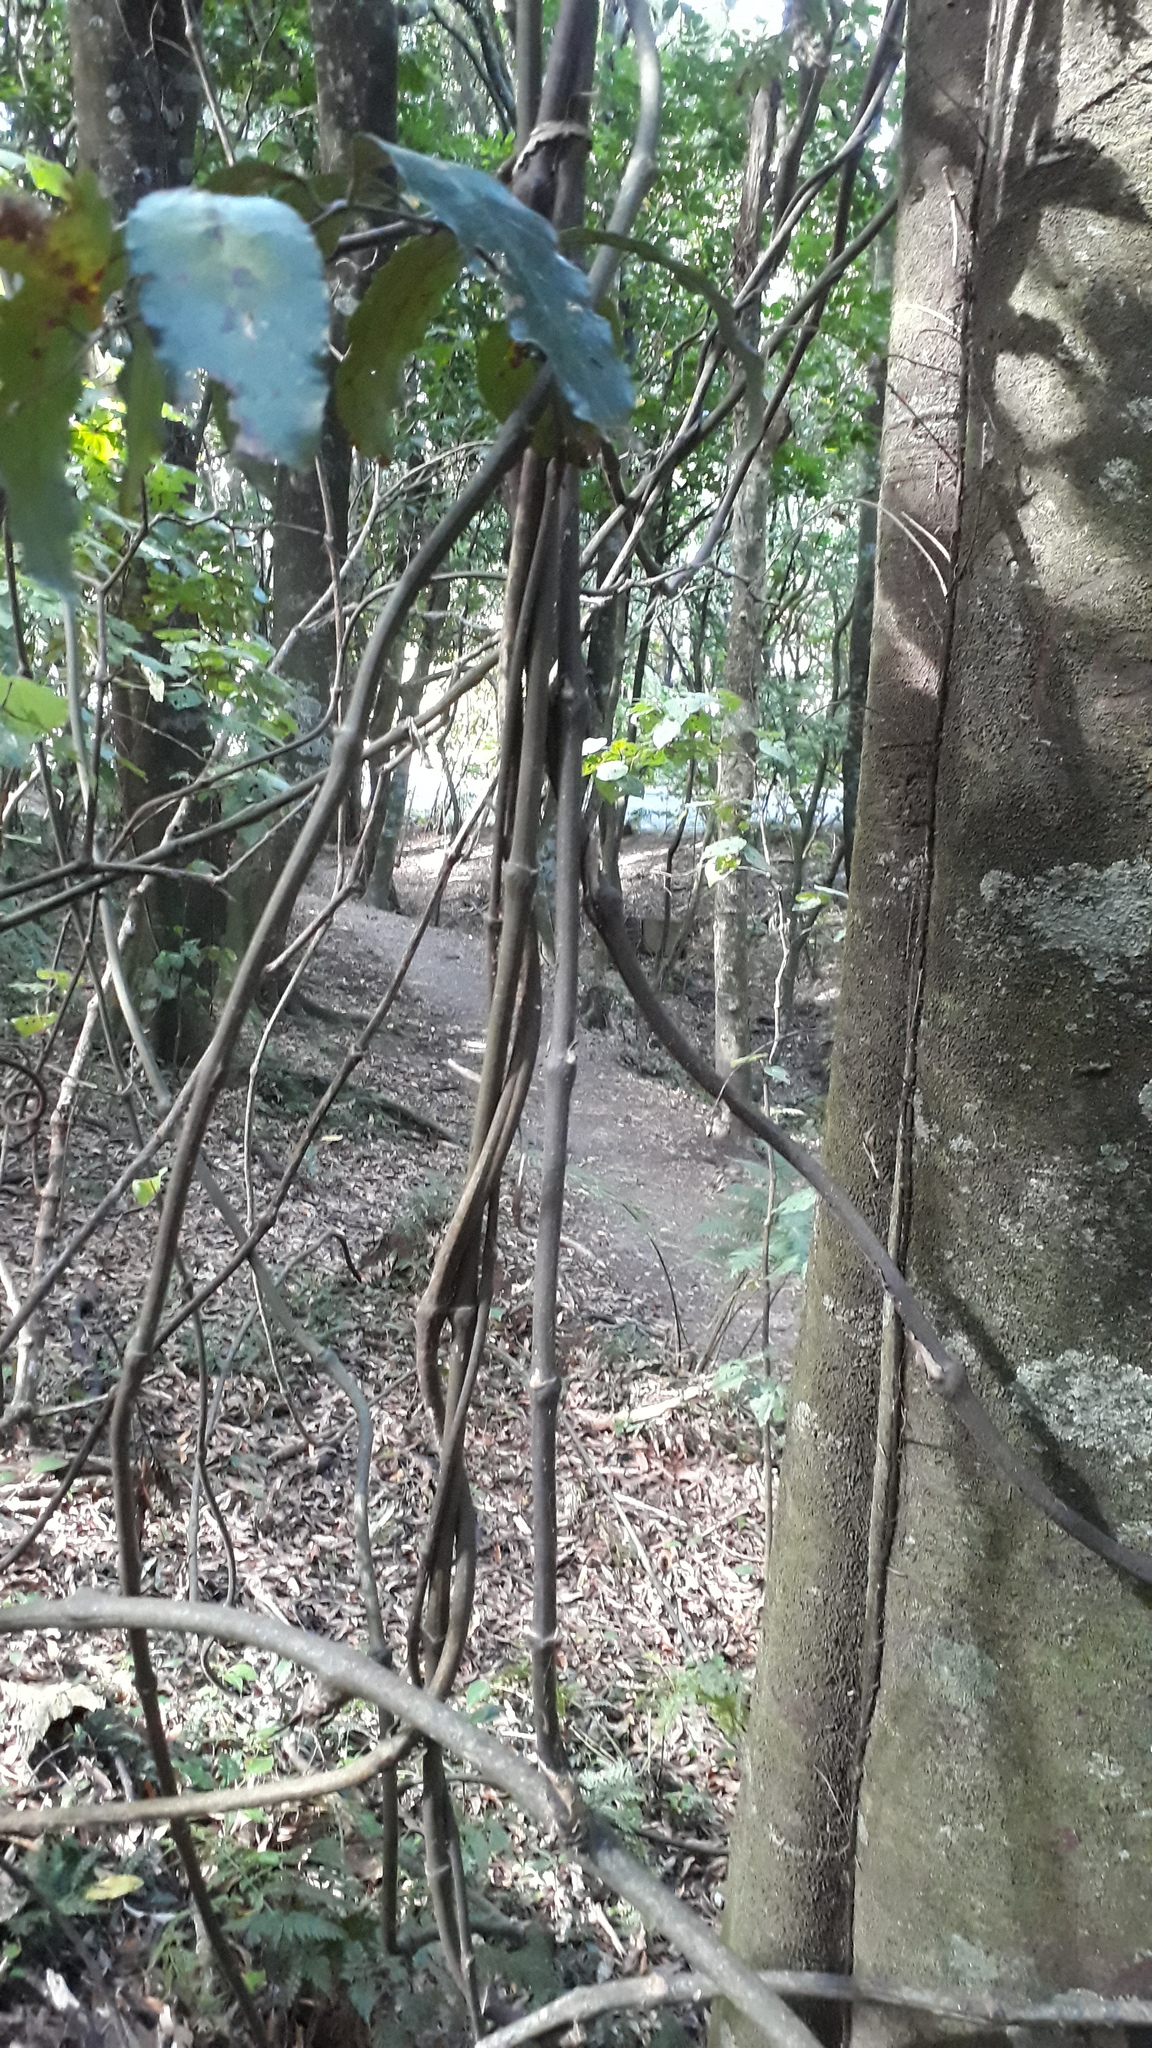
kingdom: Plantae
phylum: Tracheophyta
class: Liliopsida
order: Liliales
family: Ripogonaceae
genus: Ripogonum
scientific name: Ripogonum scandens
